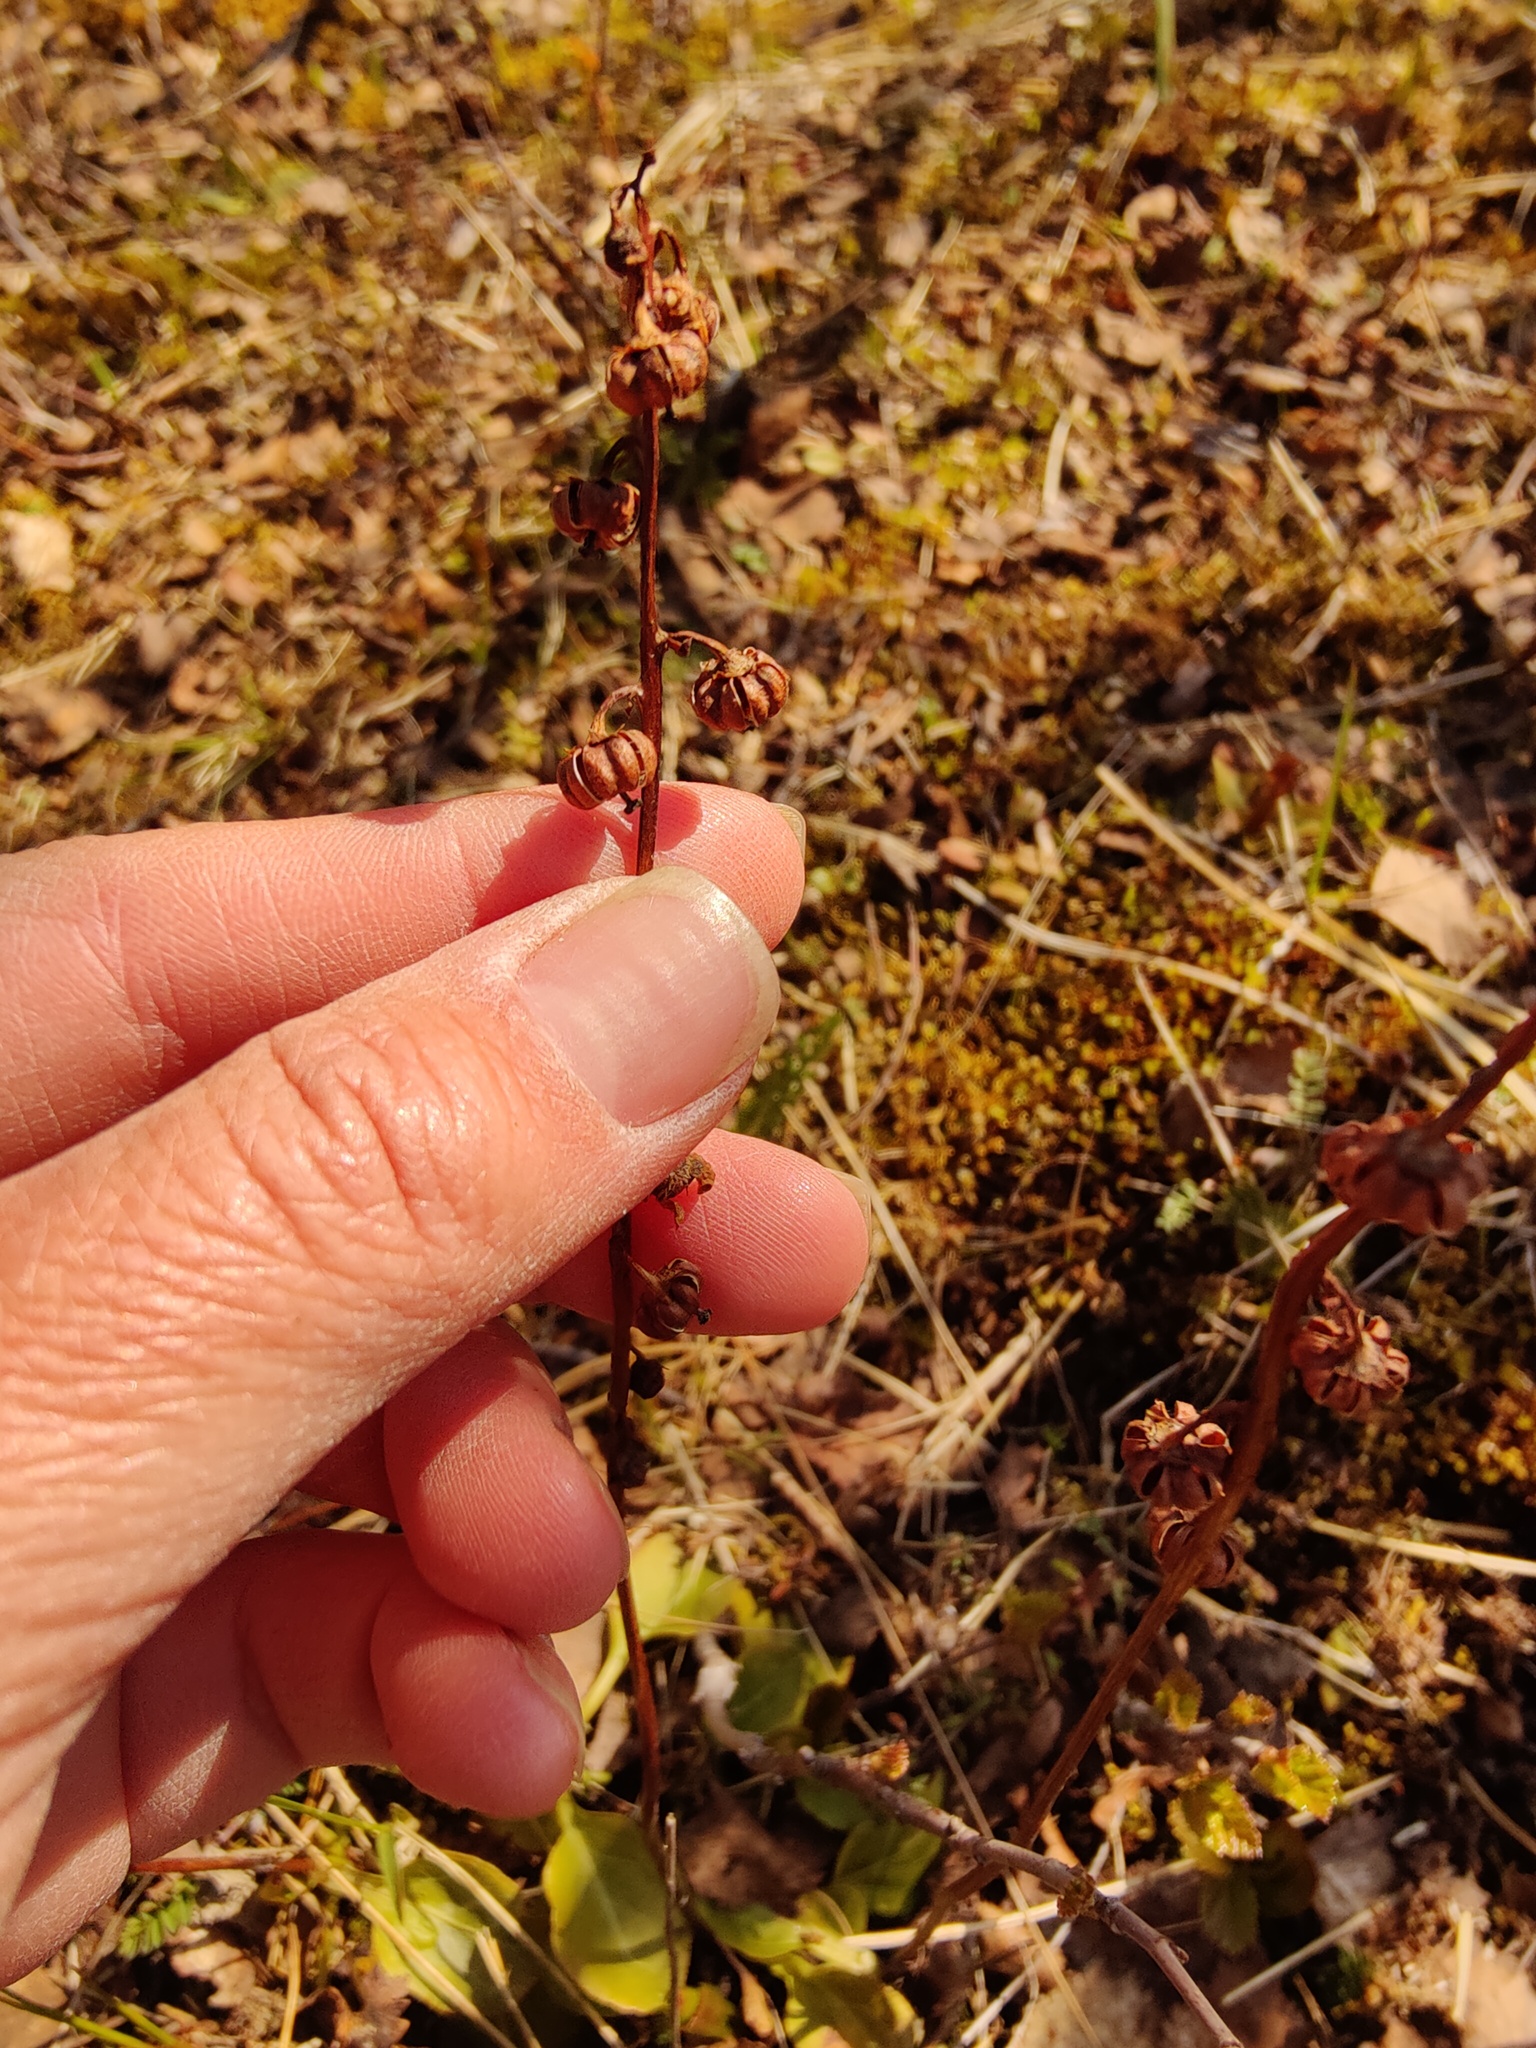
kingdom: Plantae
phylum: Tracheophyta
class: Magnoliopsida
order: Ericales
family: Ericaceae
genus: Pyrola
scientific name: Pyrola minor
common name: Common wintergreen
